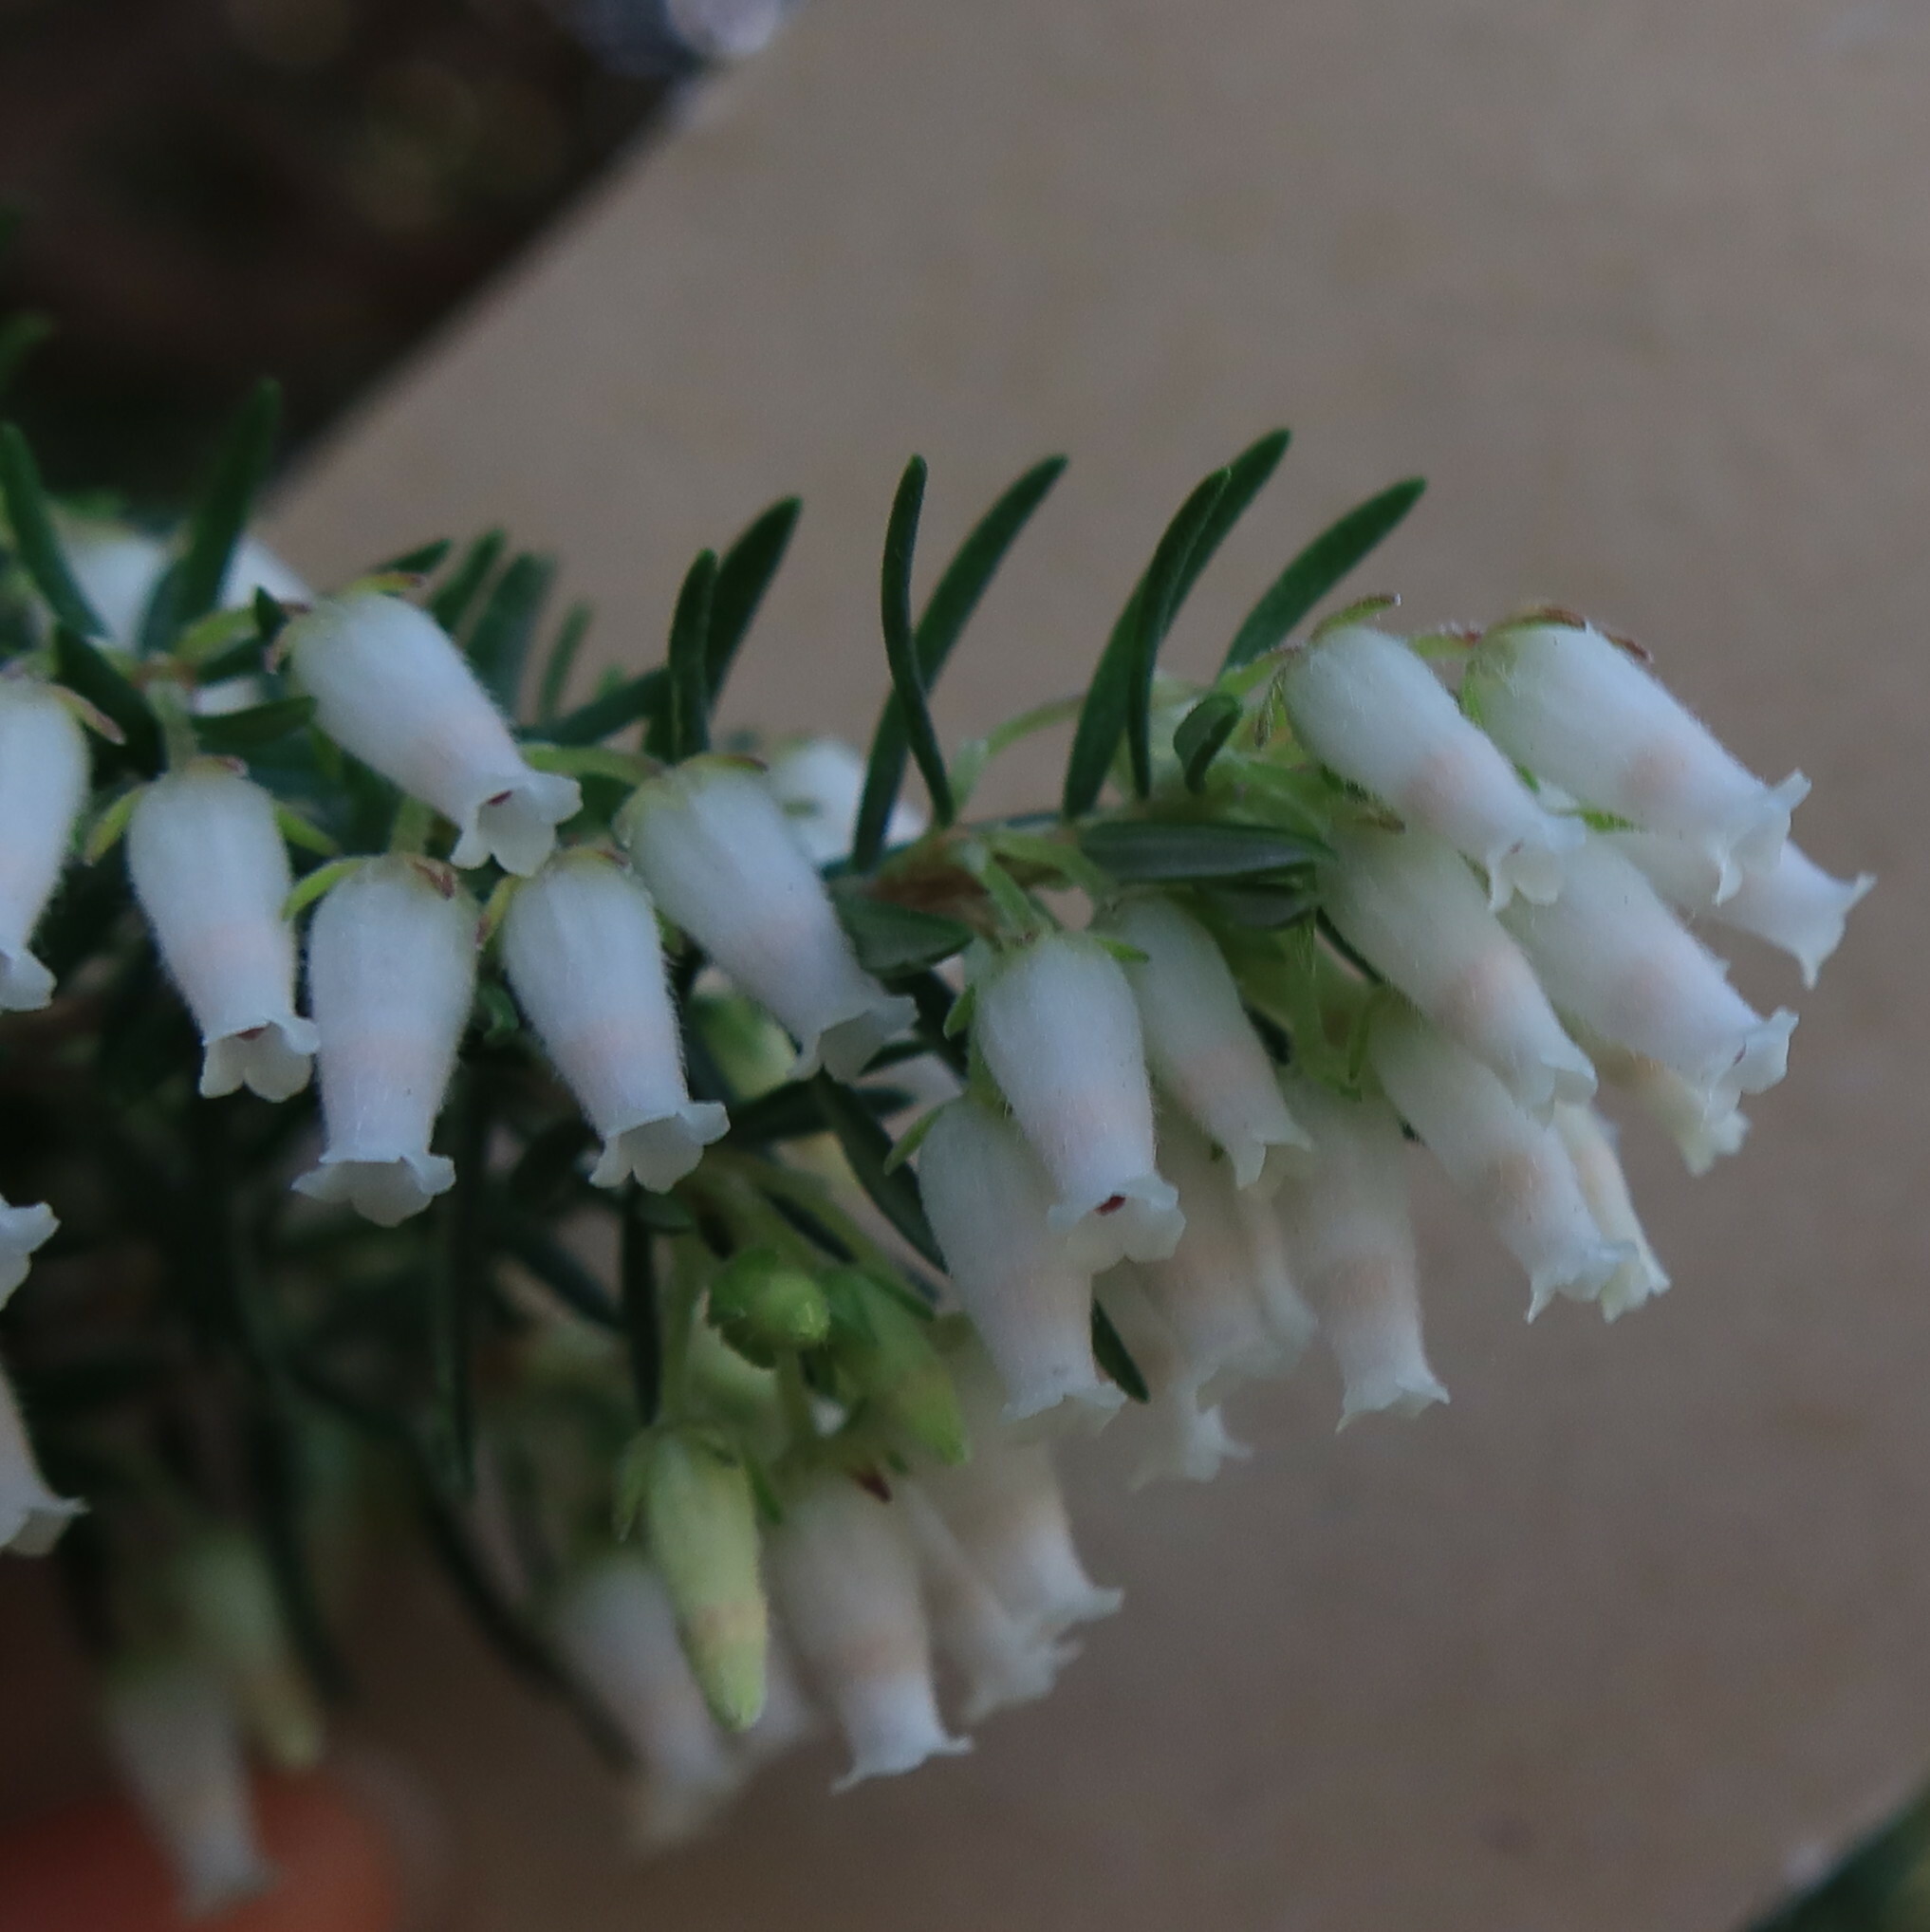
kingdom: Plantae
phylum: Tracheophyta
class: Magnoliopsida
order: Ericales
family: Ericaceae
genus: Erica
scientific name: Erica caffra
